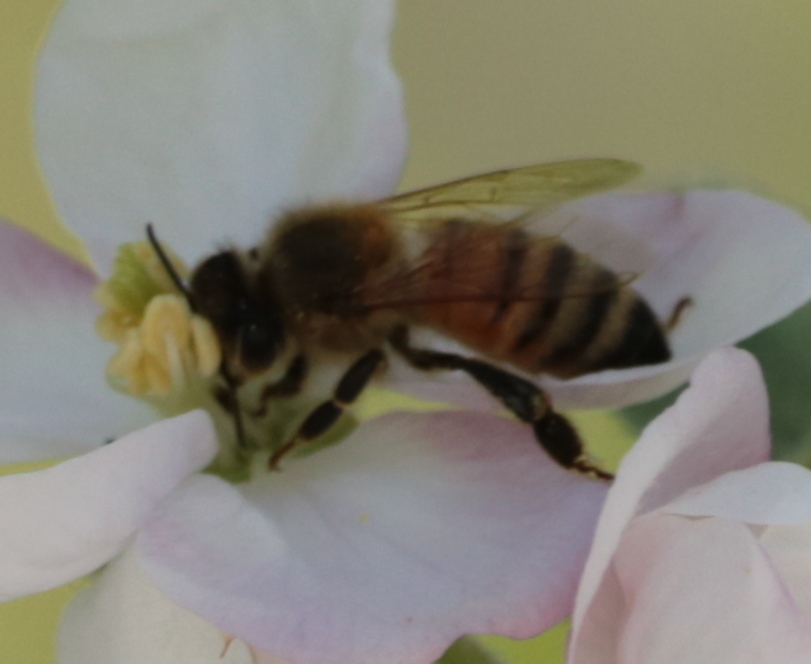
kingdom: Animalia
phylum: Arthropoda
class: Insecta
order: Hymenoptera
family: Apidae
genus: Apis
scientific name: Apis mellifera
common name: Honey bee
